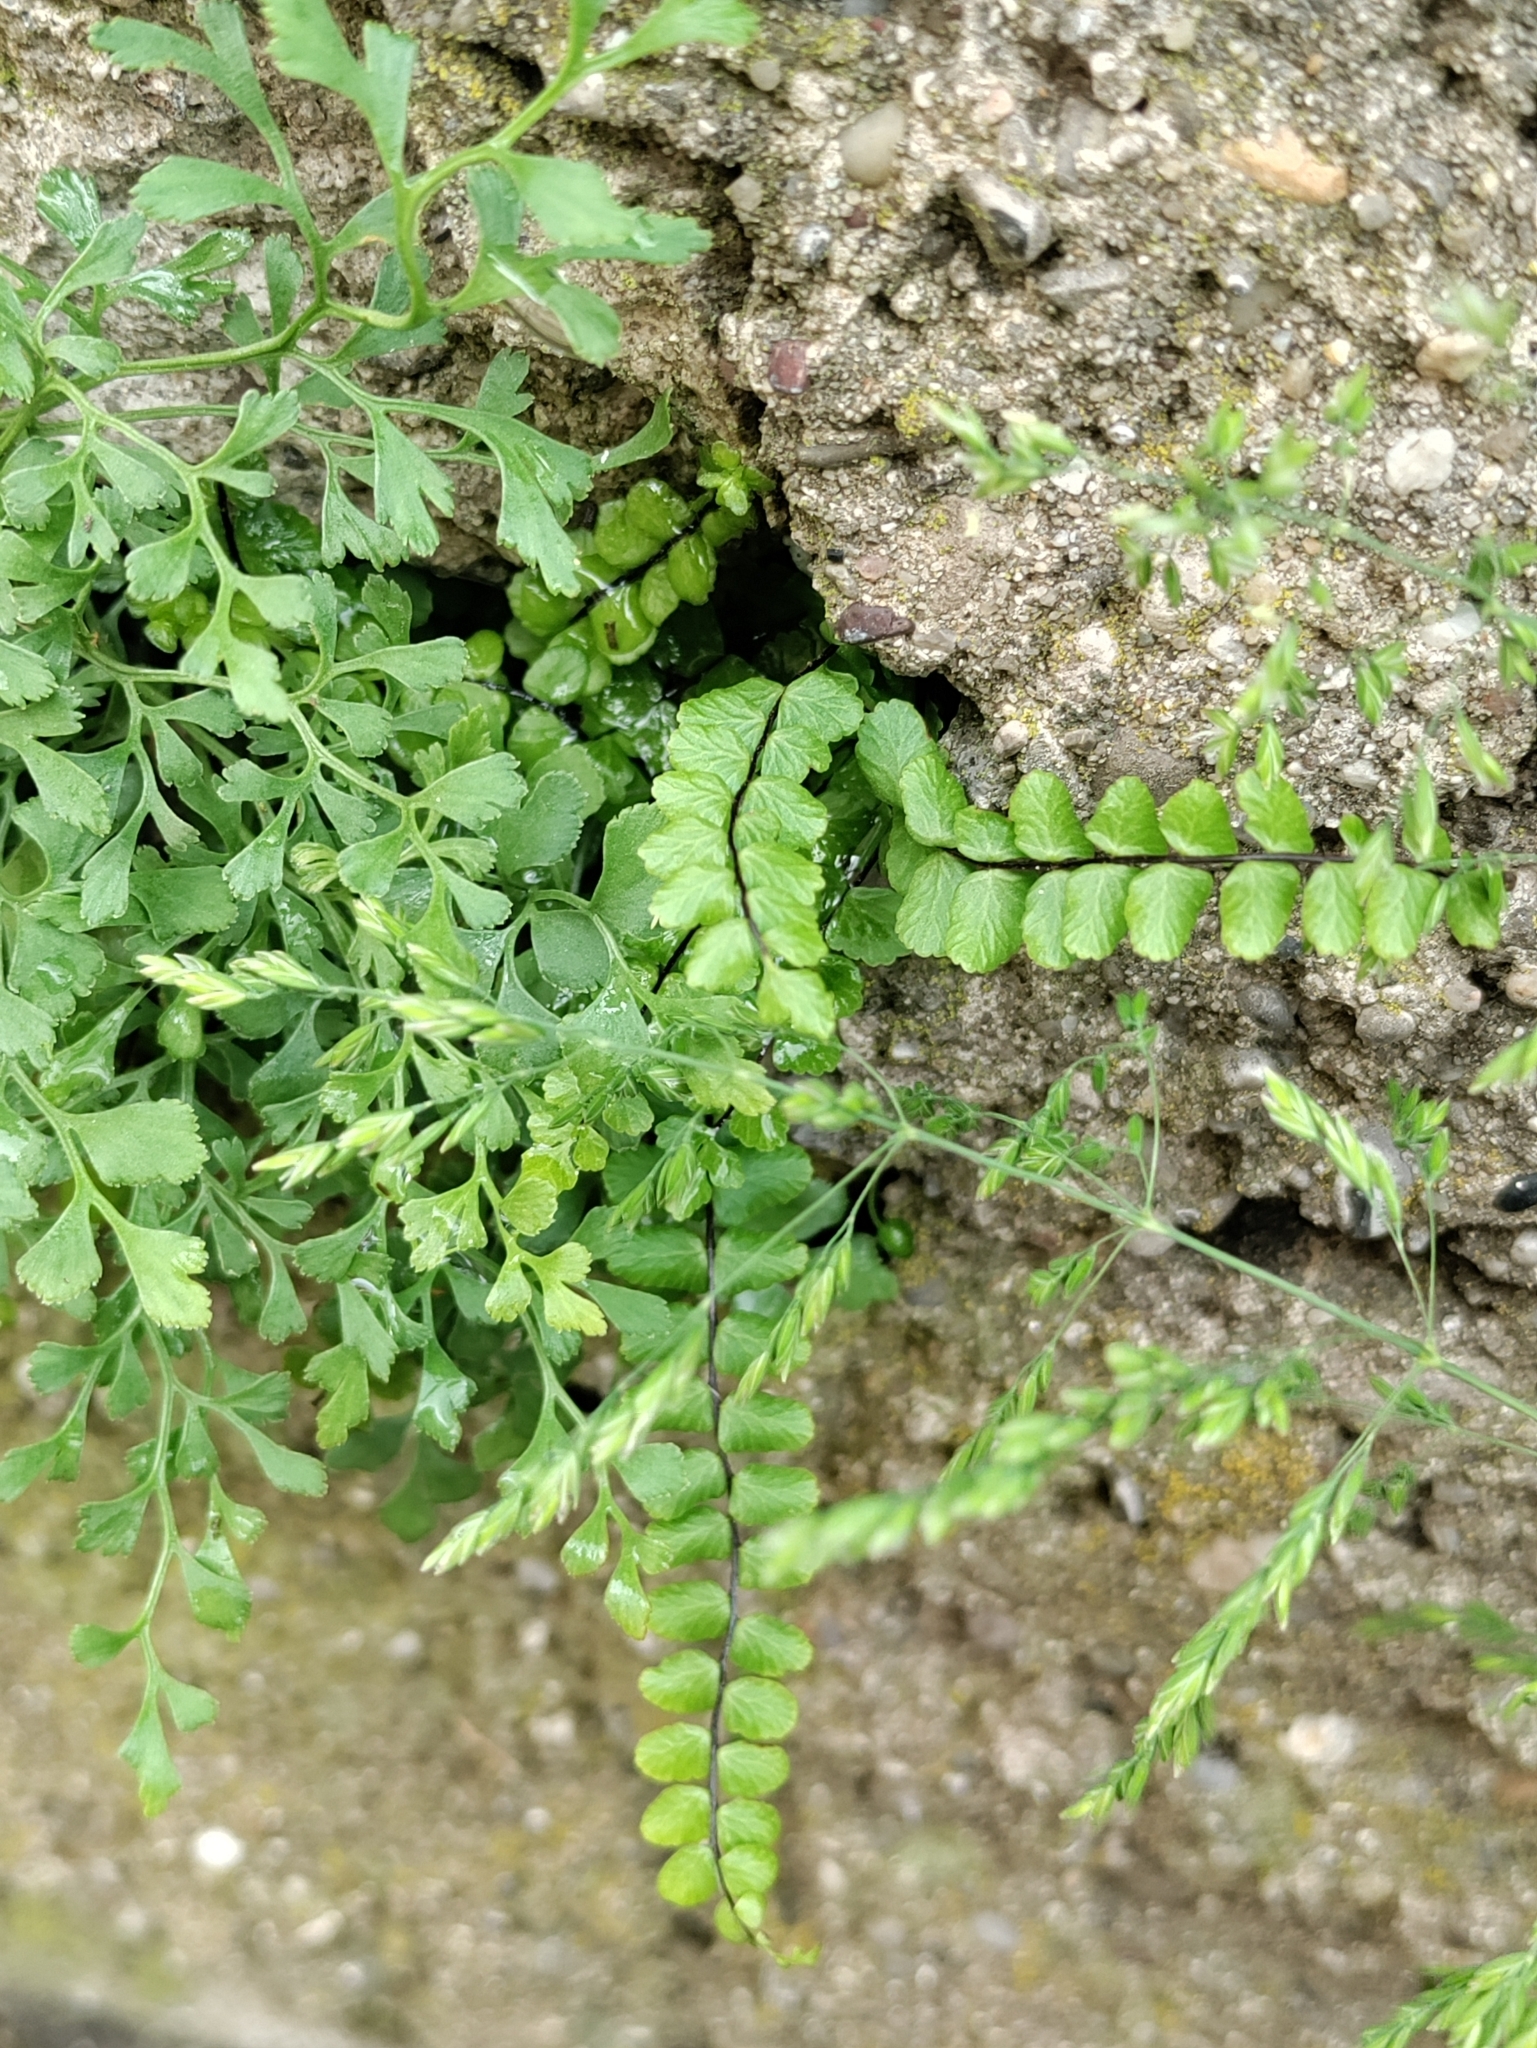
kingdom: Plantae
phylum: Tracheophyta
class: Polypodiopsida
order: Polypodiales
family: Aspleniaceae
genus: Asplenium
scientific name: Asplenium trichomanes
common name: Maidenhair spleenwort
